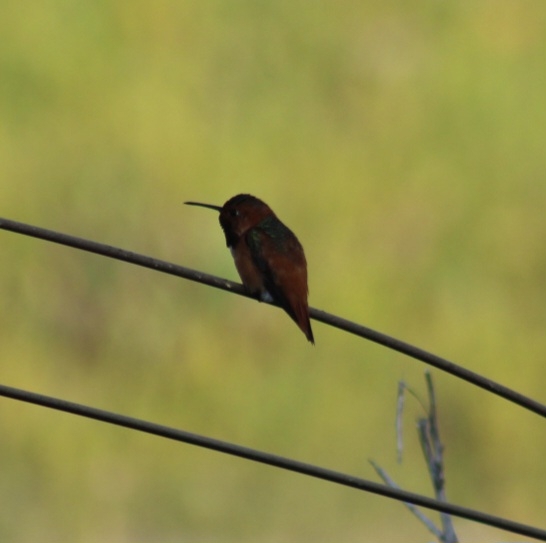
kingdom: Animalia
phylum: Chordata
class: Aves
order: Apodiformes
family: Trochilidae
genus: Selasphorus
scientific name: Selasphorus sasin
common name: Allen's hummingbird
